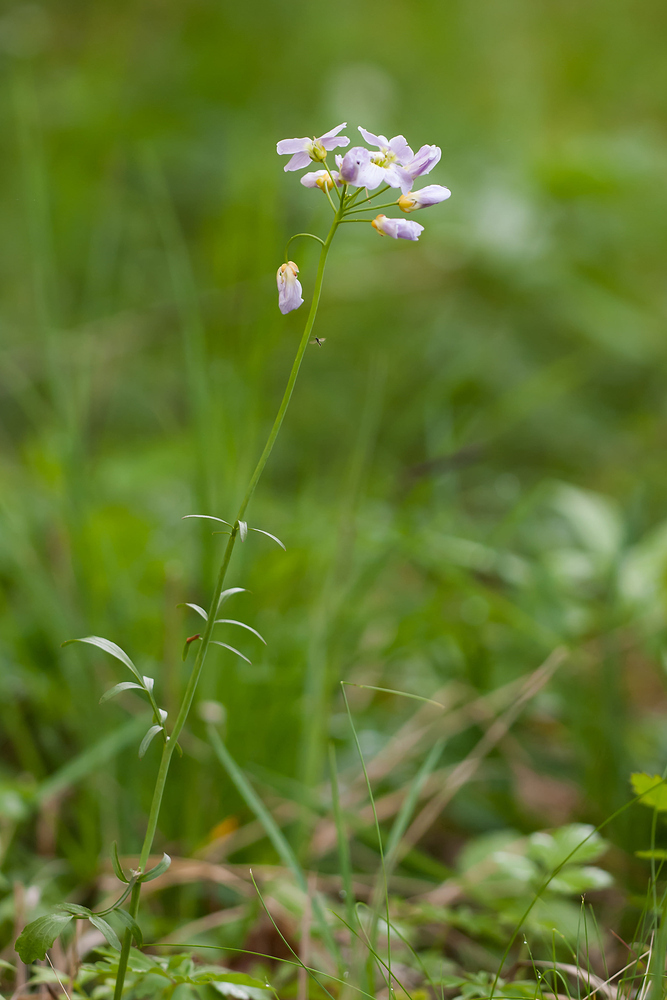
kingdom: Plantae
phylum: Tracheophyta
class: Magnoliopsida
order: Brassicales
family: Brassicaceae
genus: Cardamine
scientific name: Cardamine pratensis
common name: Cuckoo flower
